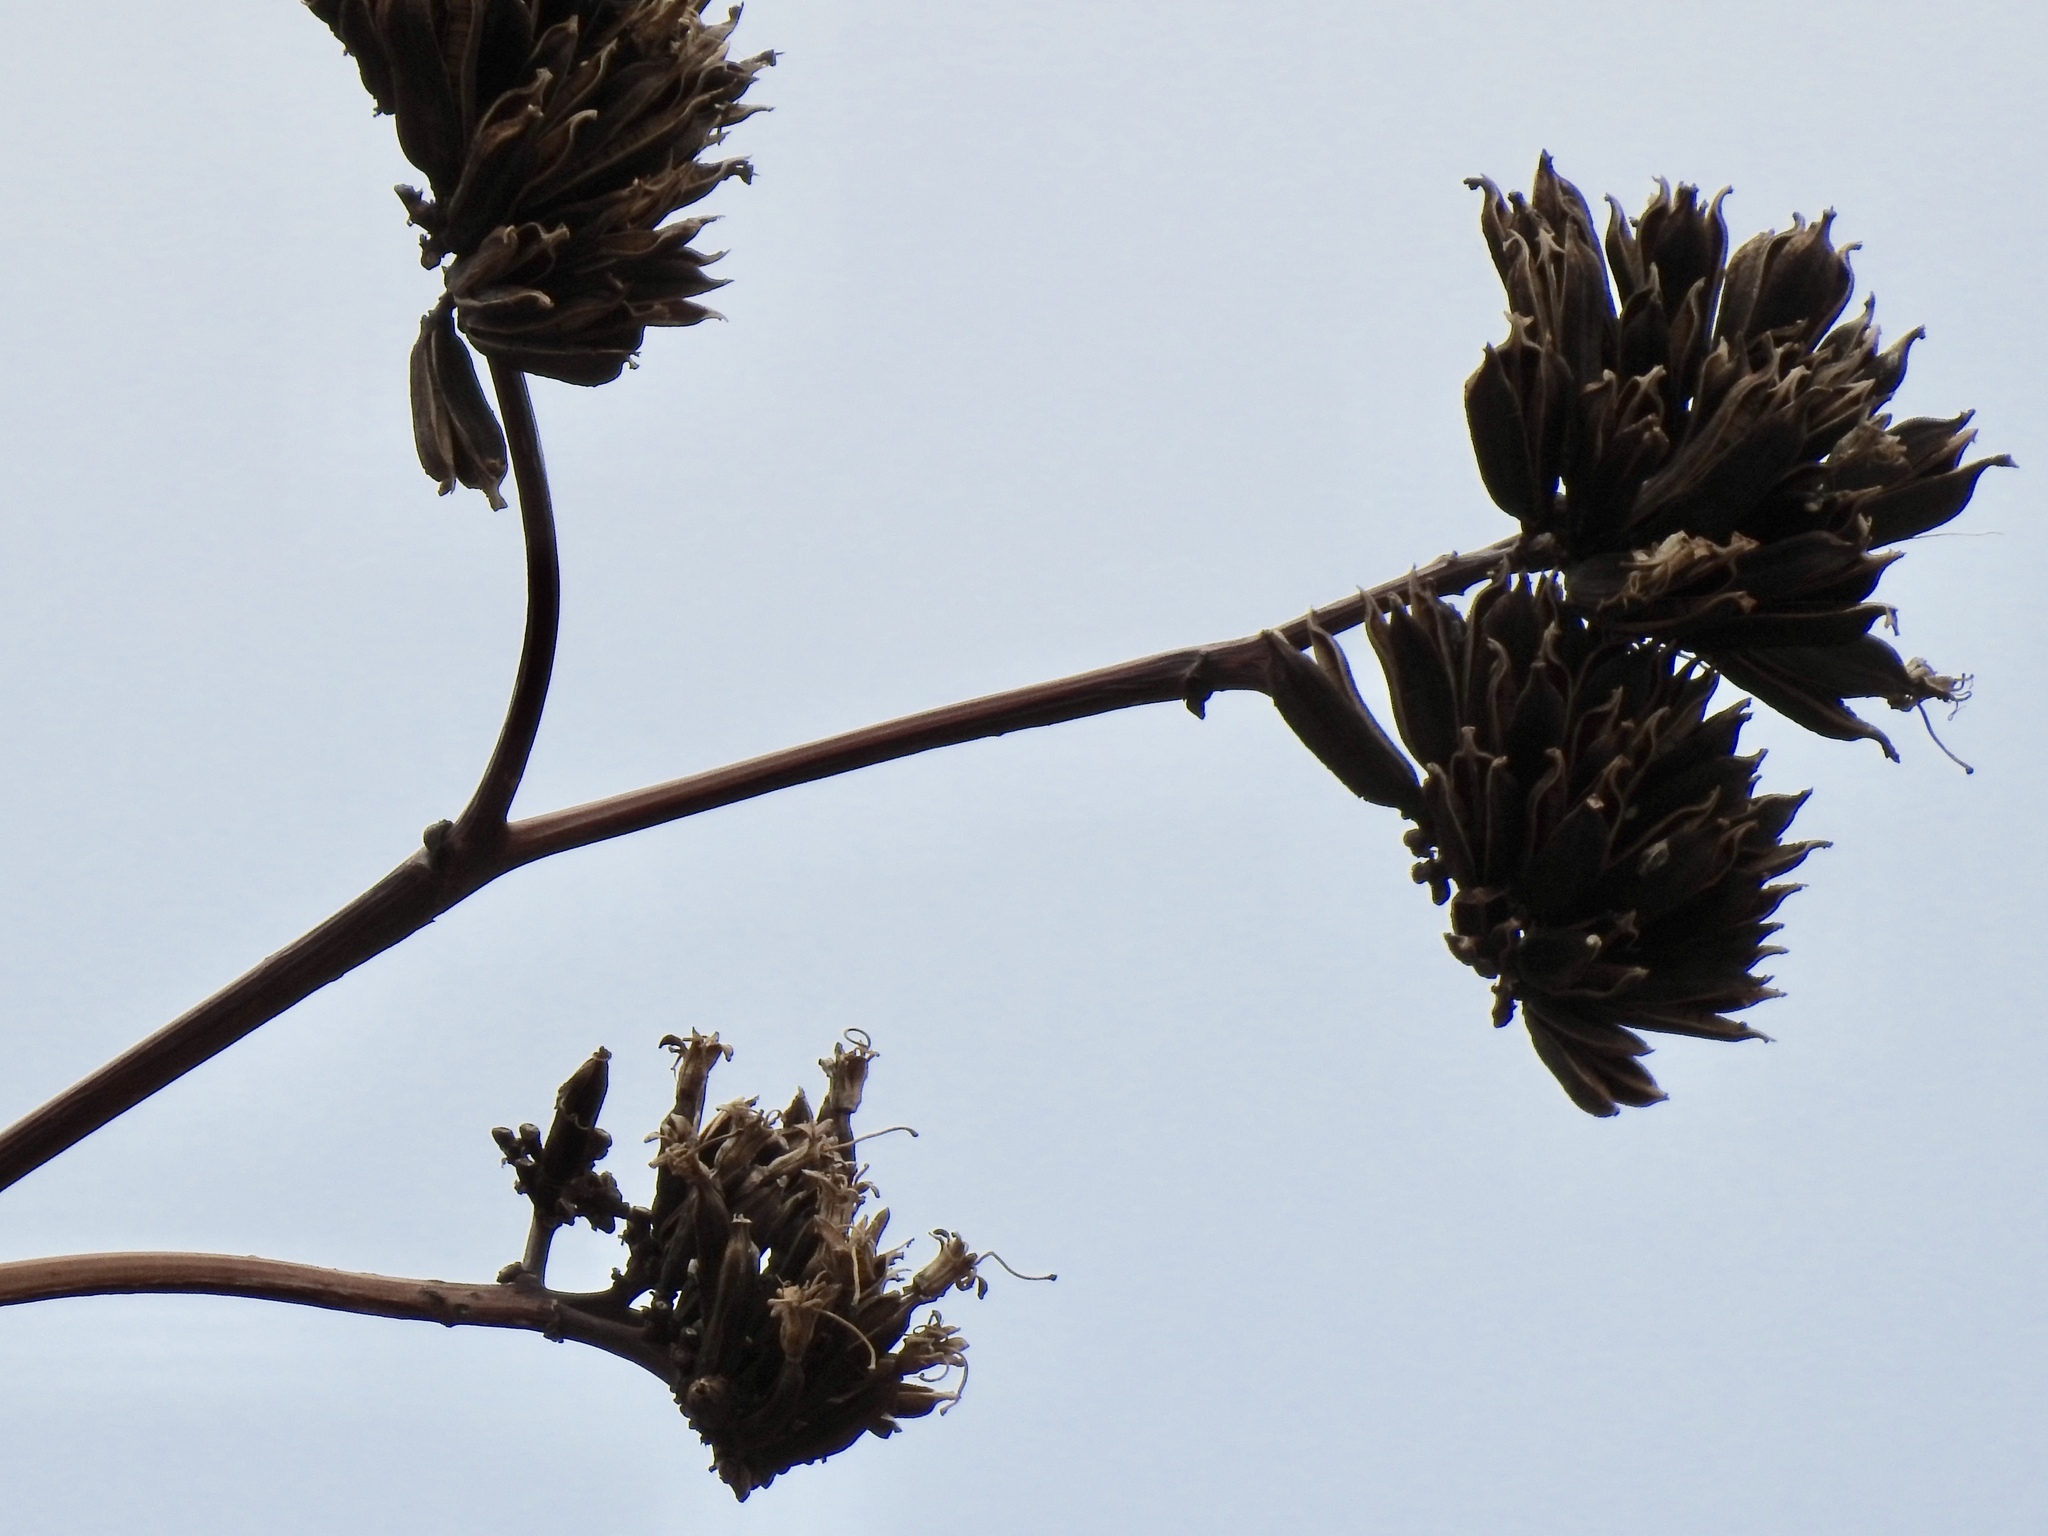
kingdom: Plantae
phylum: Tracheophyta
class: Liliopsida
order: Asparagales
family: Asparagaceae
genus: Agave
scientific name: Agave palmeri
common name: Palmer agave
